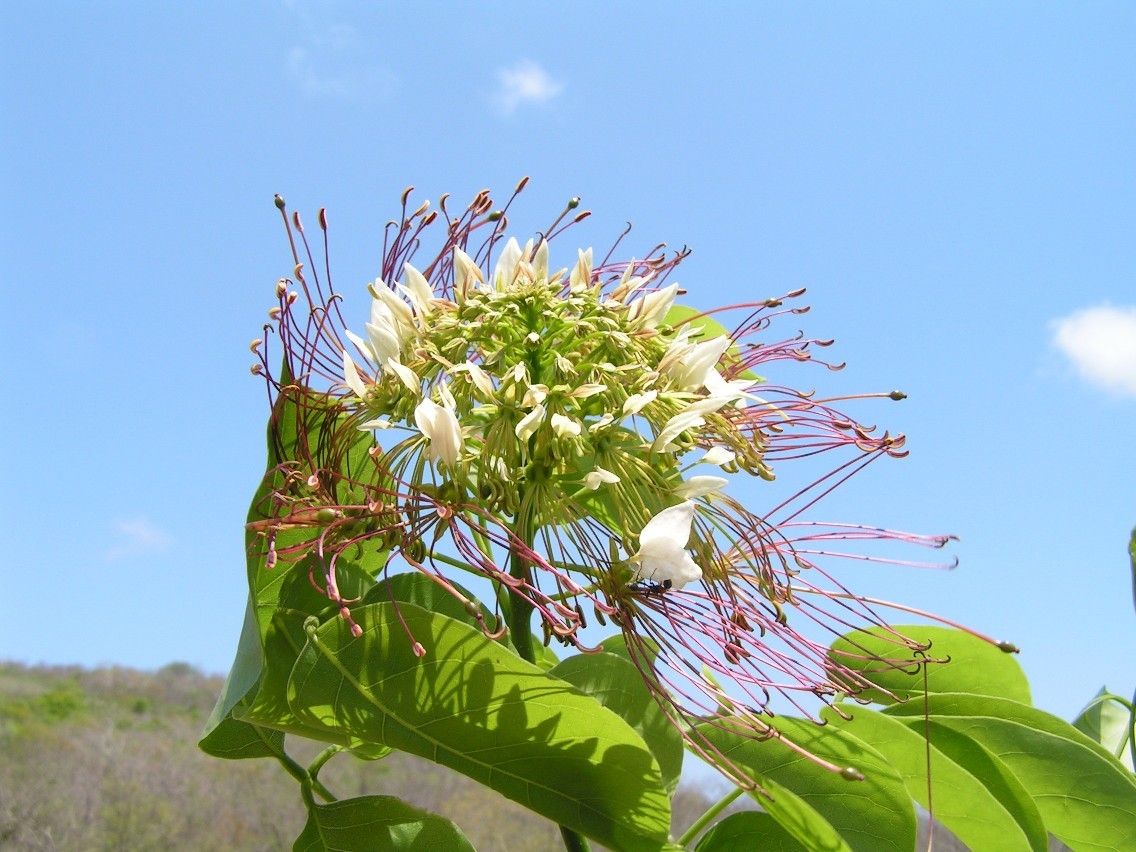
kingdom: Plantae
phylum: Tracheophyta
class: Magnoliopsida
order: Brassicales
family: Capparaceae
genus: Crateva
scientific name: Crateva tapia
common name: Garlic-pear
